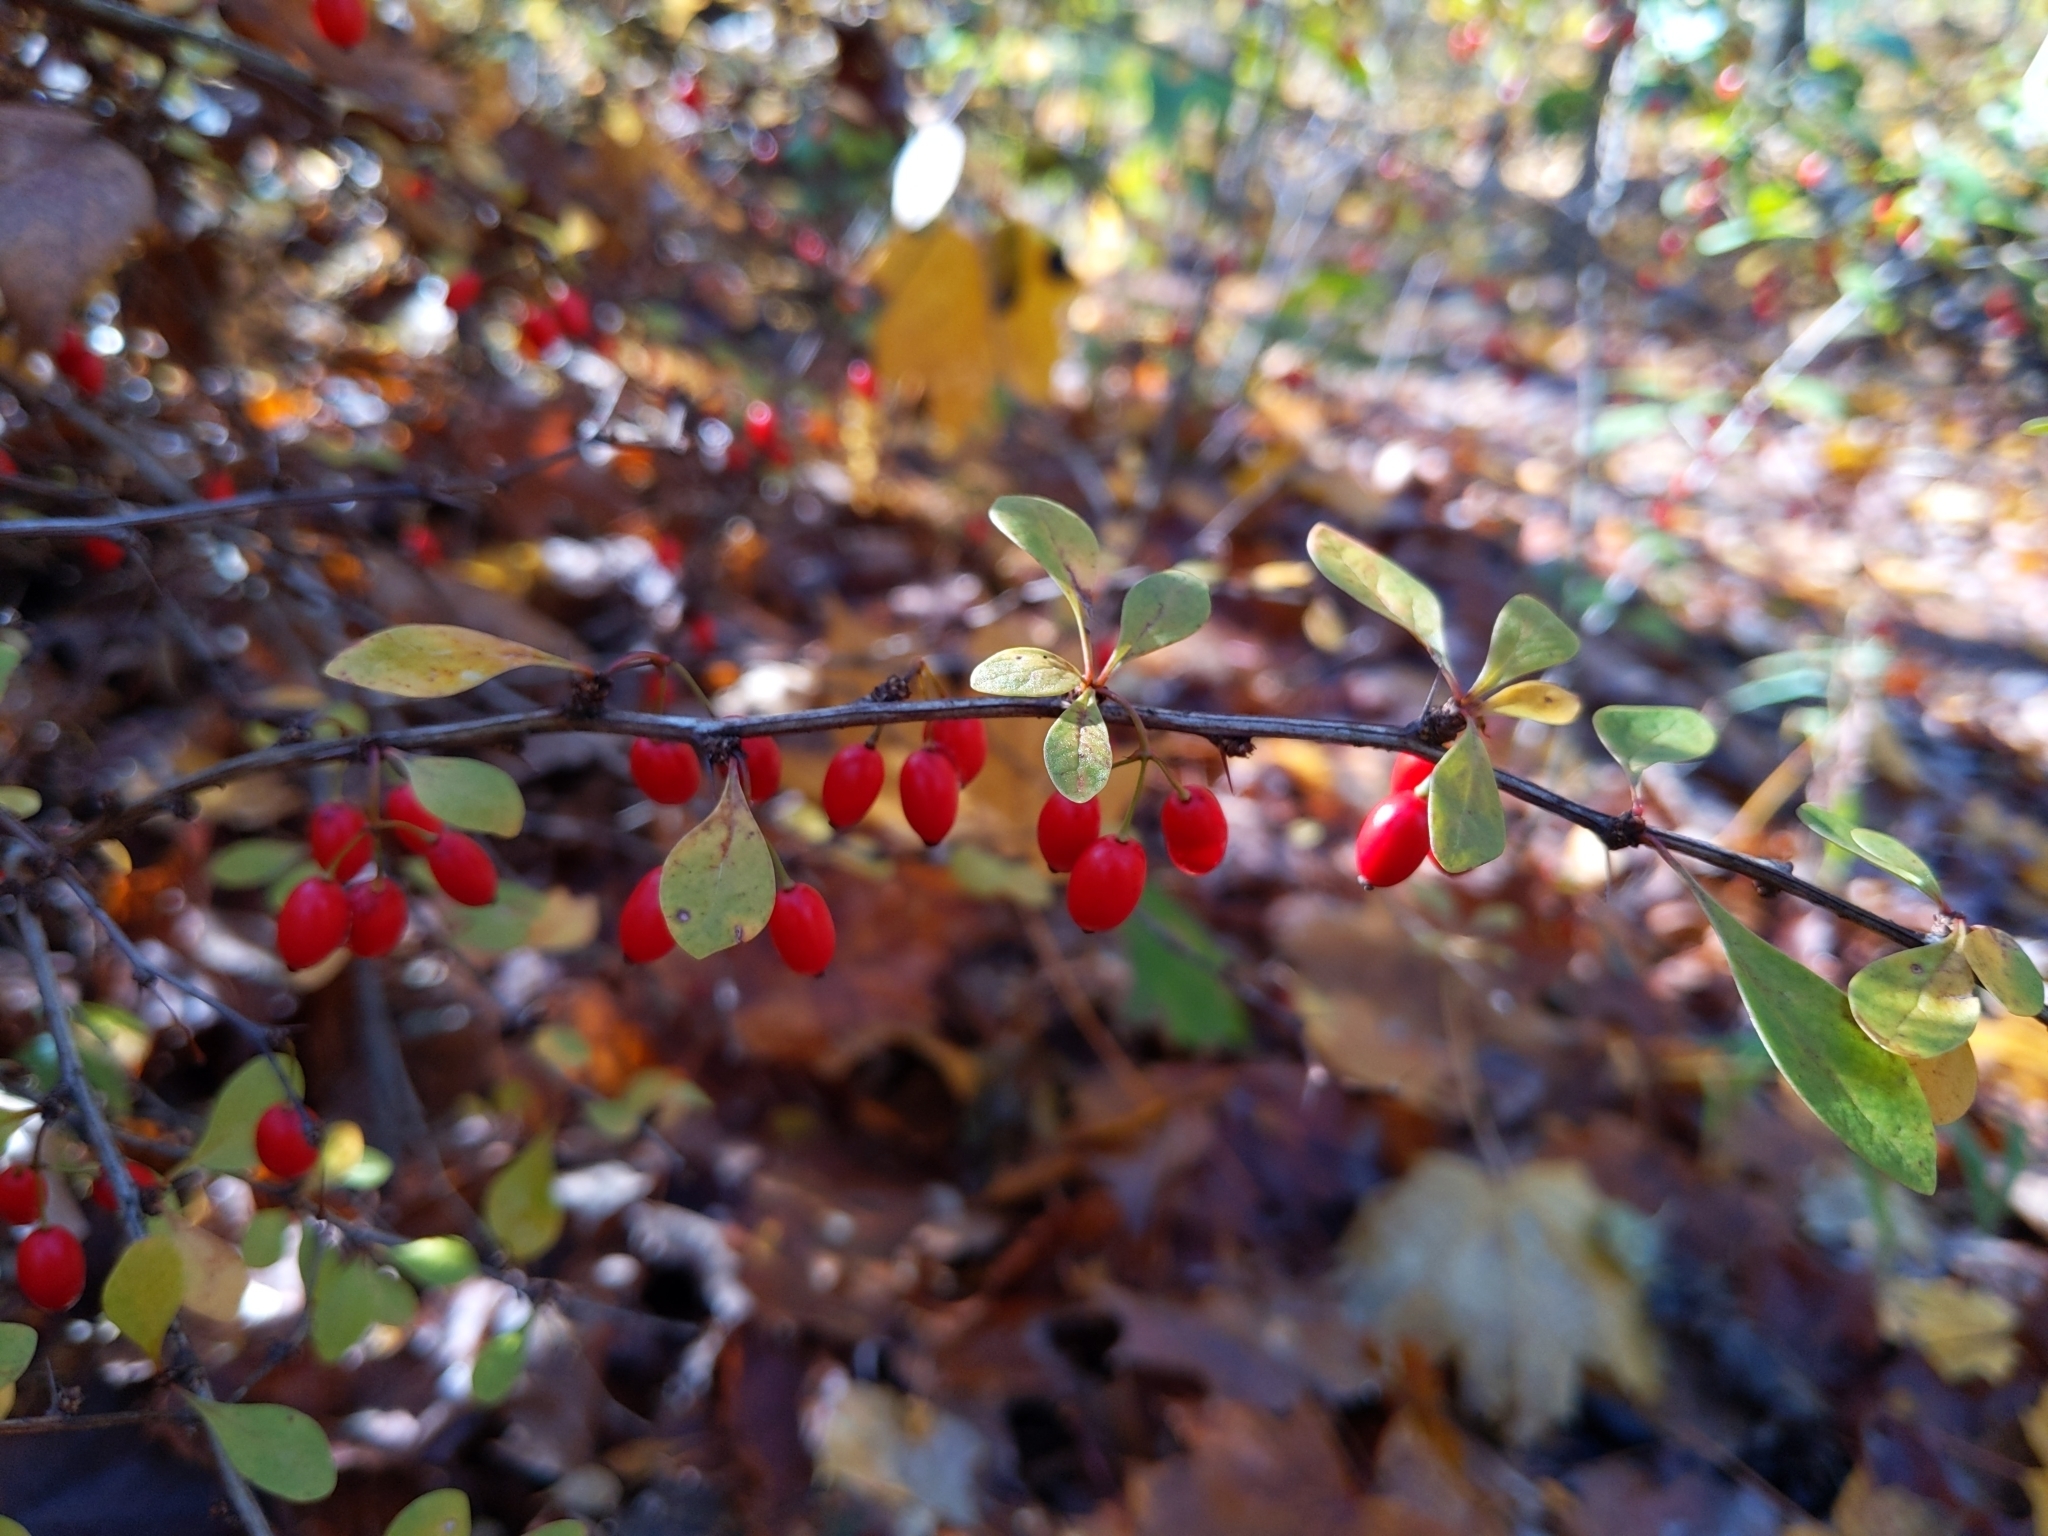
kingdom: Plantae
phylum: Tracheophyta
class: Magnoliopsida
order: Ranunculales
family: Berberidaceae
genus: Berberis
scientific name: Berberis thunbergii
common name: Japanese barberry
